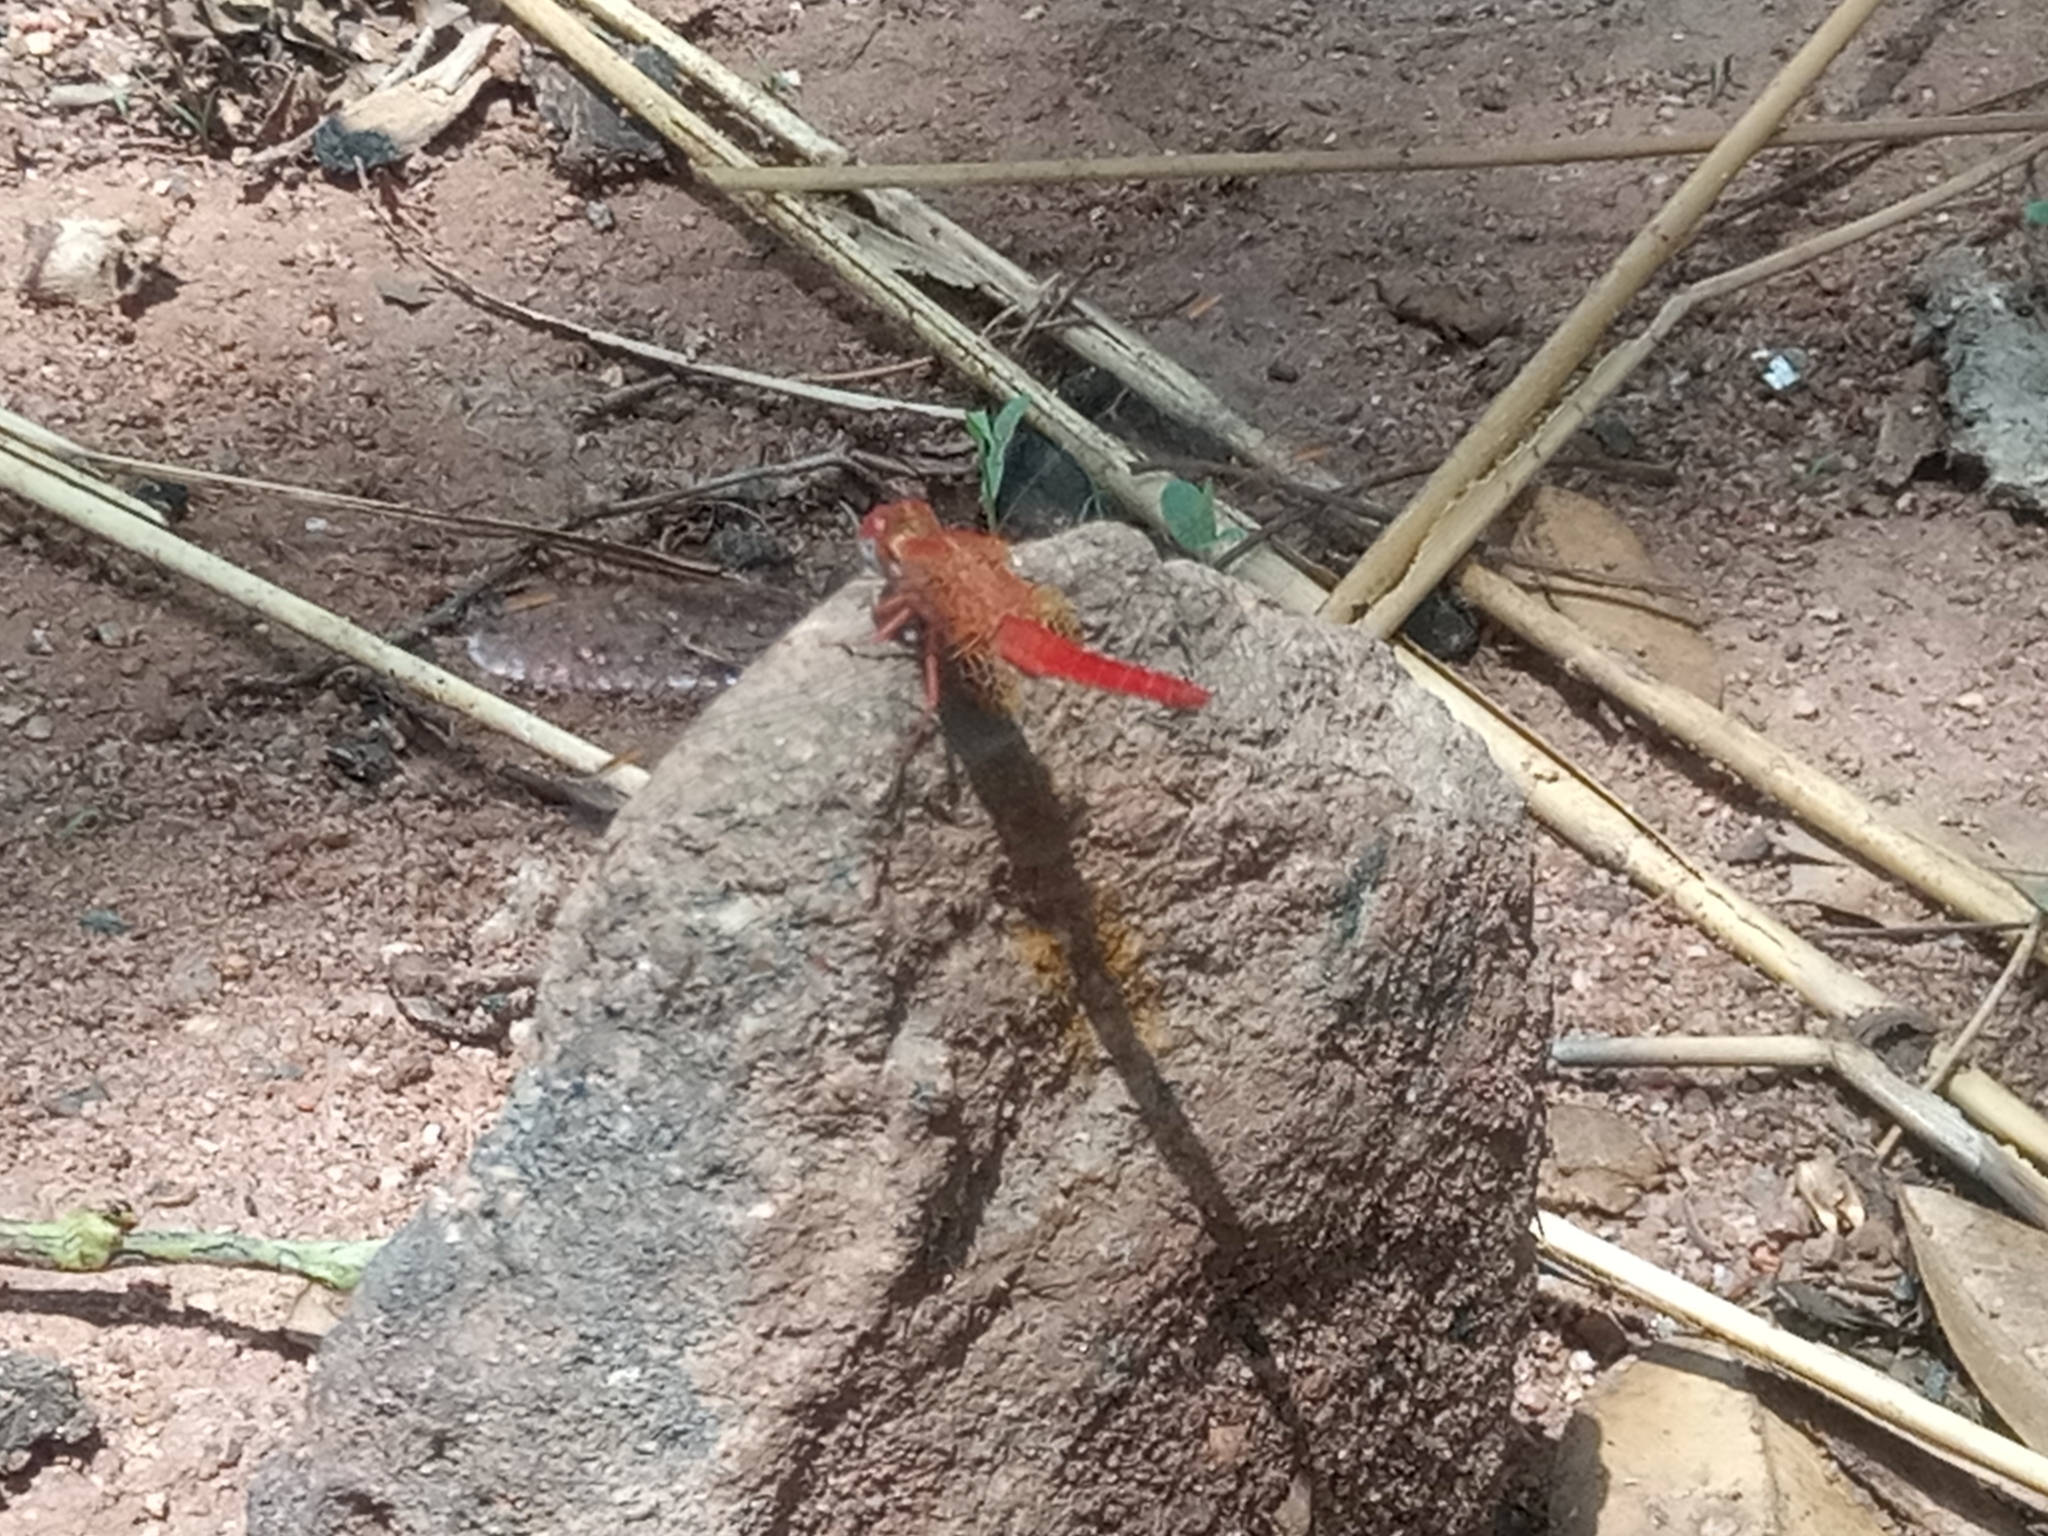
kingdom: Animalia
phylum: Arthropoda
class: Insecta
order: Odonata
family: Libellulidae
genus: Crocothemis
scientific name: Crocothemis erythraea
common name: Scarlet dragonfly
